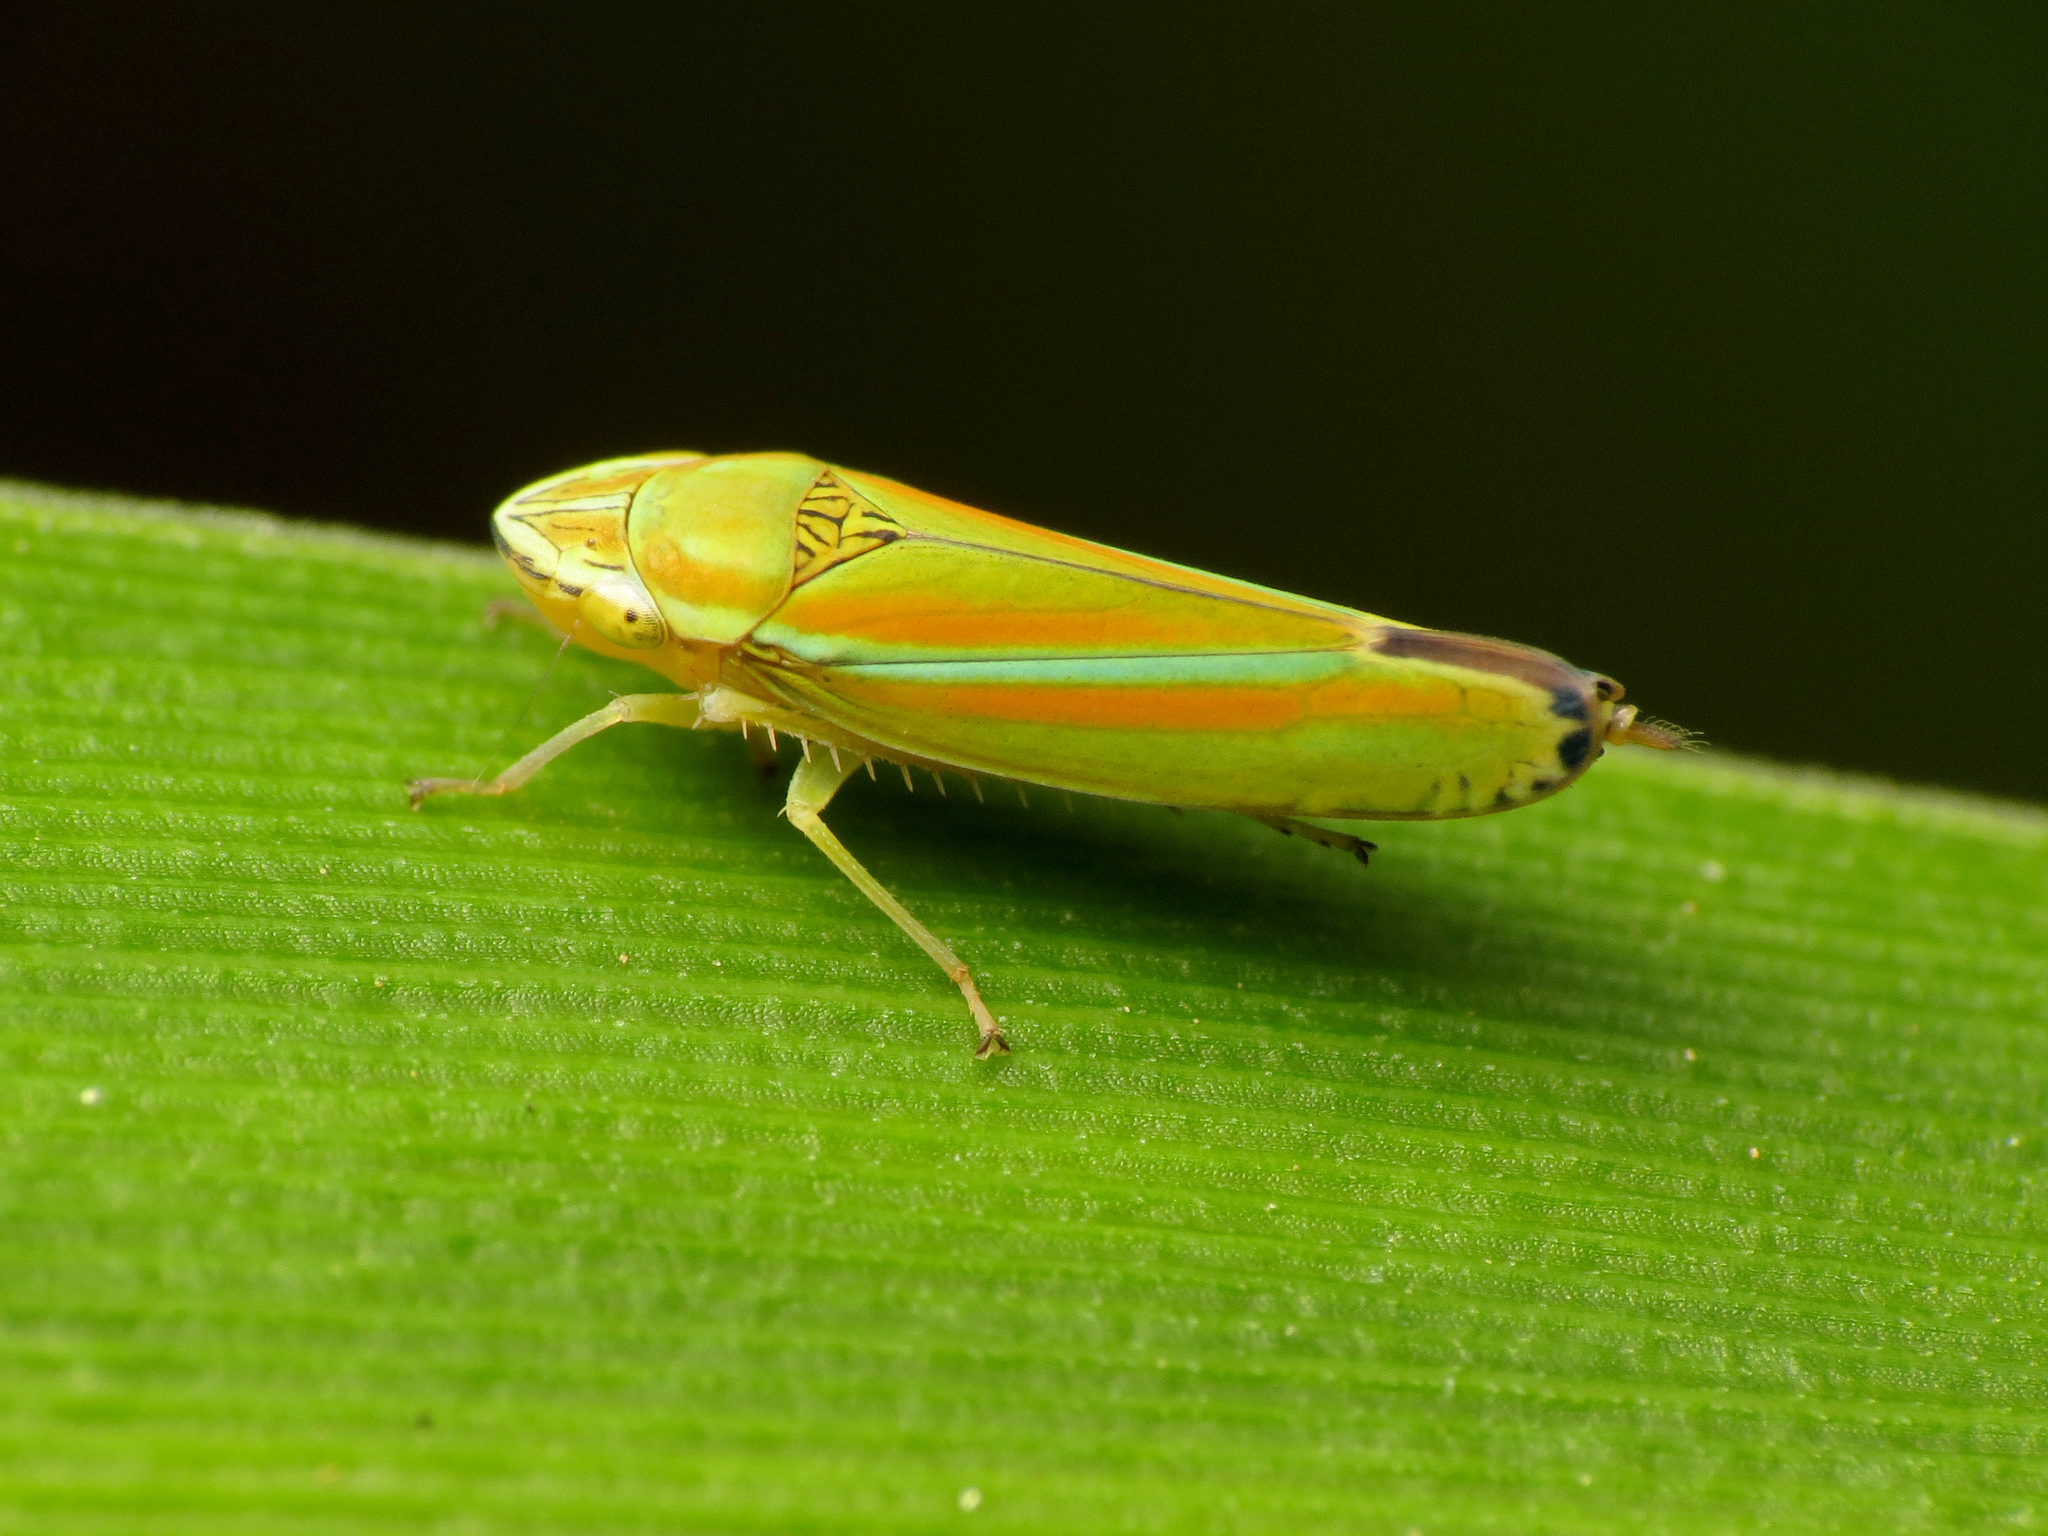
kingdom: Animalia
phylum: Arthropoda
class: Insecta
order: Hemiptera
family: Cicadellidae
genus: Graphocephala
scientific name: Graphocephala versuta
